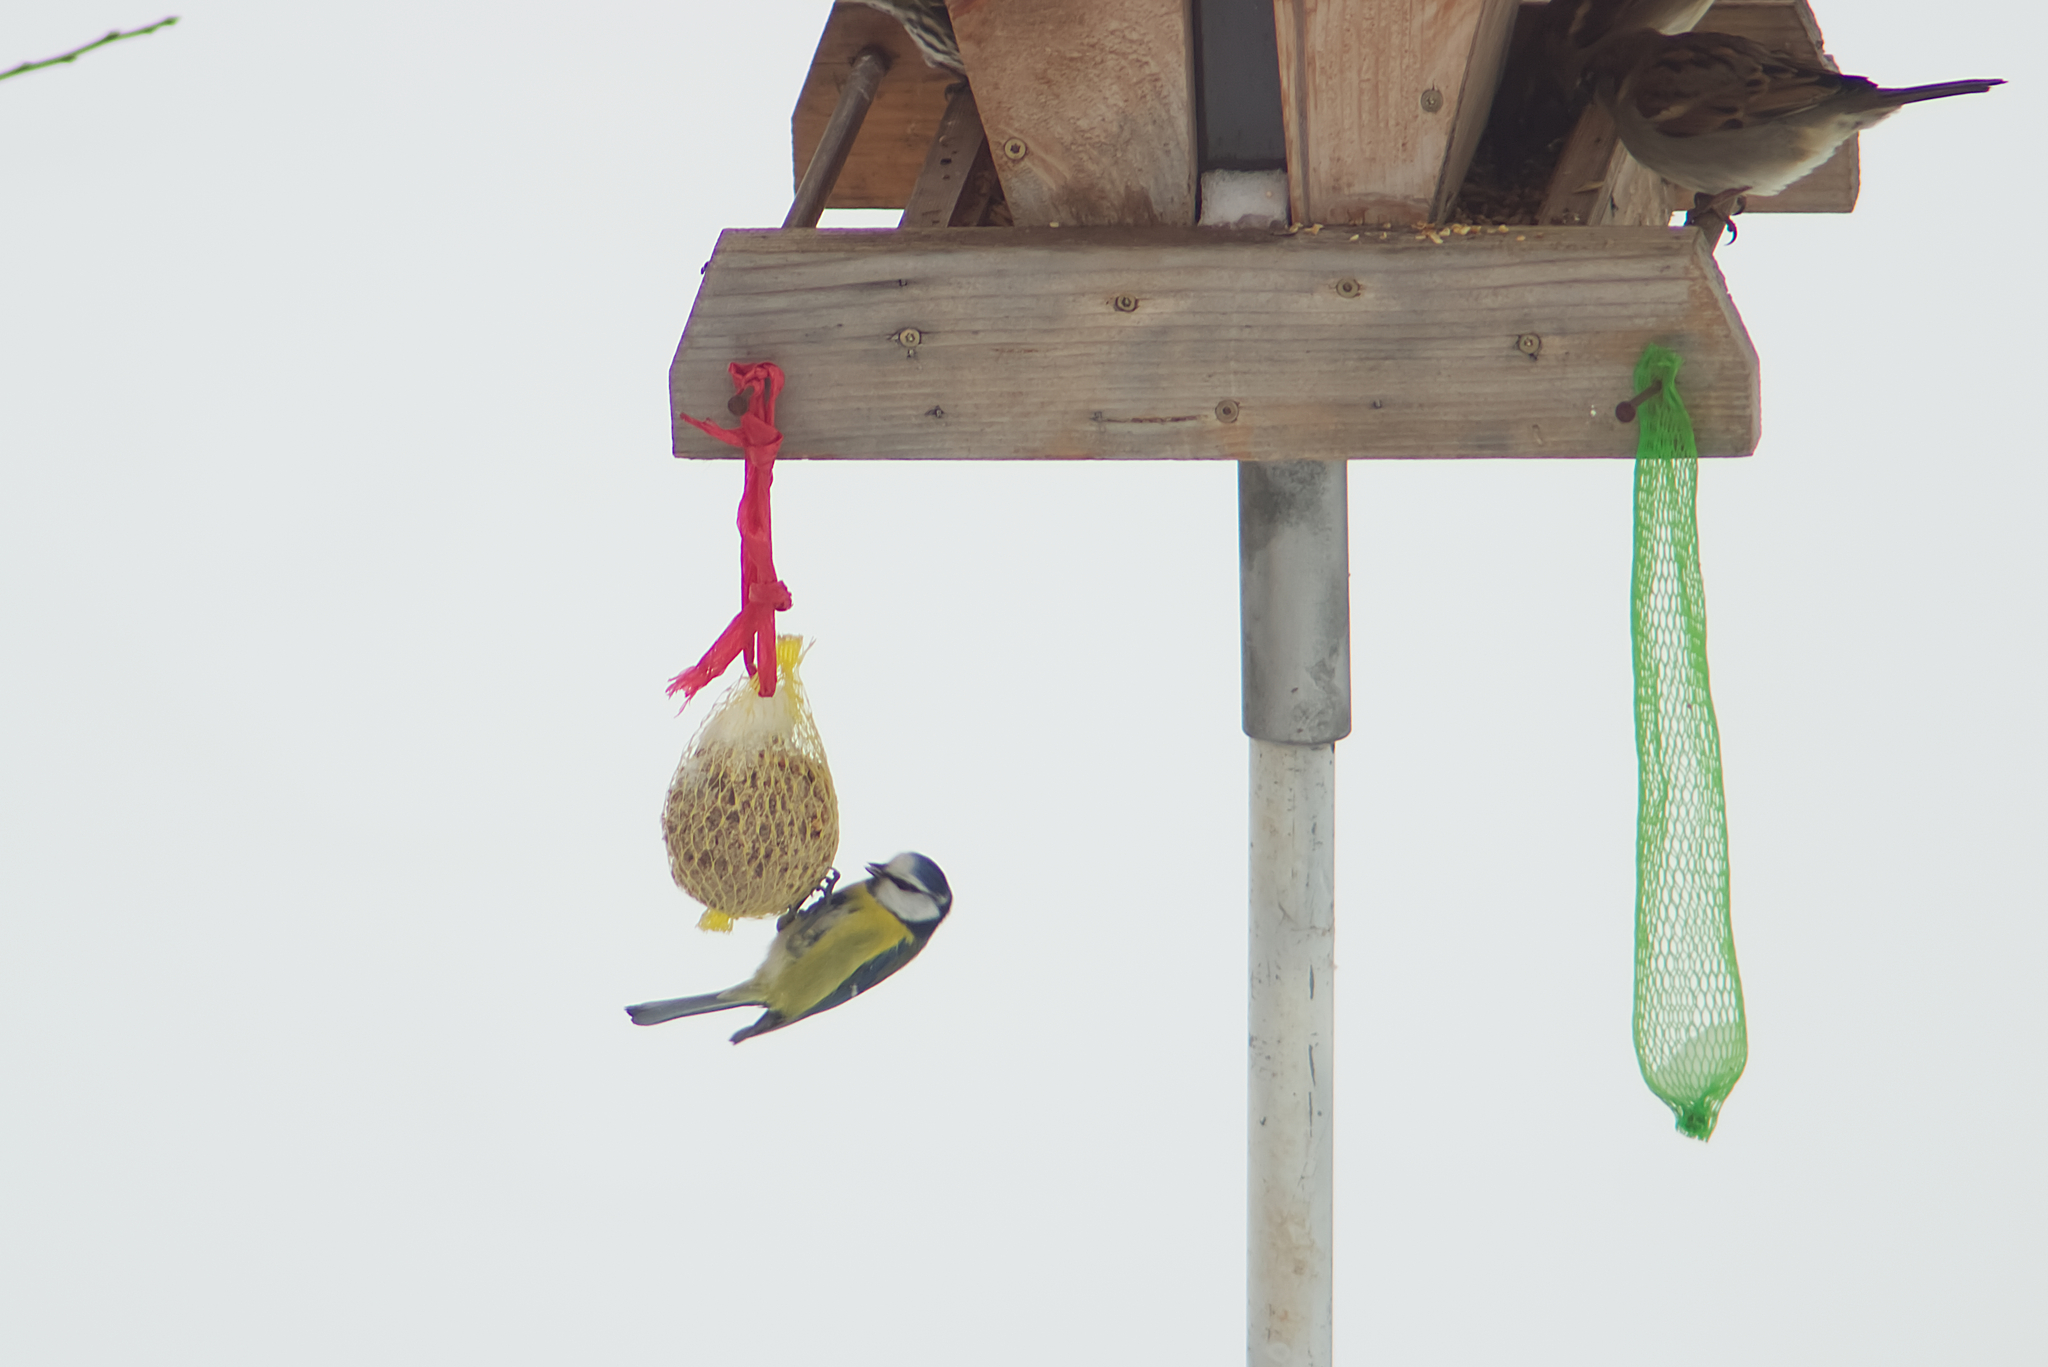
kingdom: Animalia
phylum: Chordata
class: Aves
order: Passeriformes
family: Paridae
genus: Cyanistes
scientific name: Cyanistes caeruleus
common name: Eurasian blue tit
